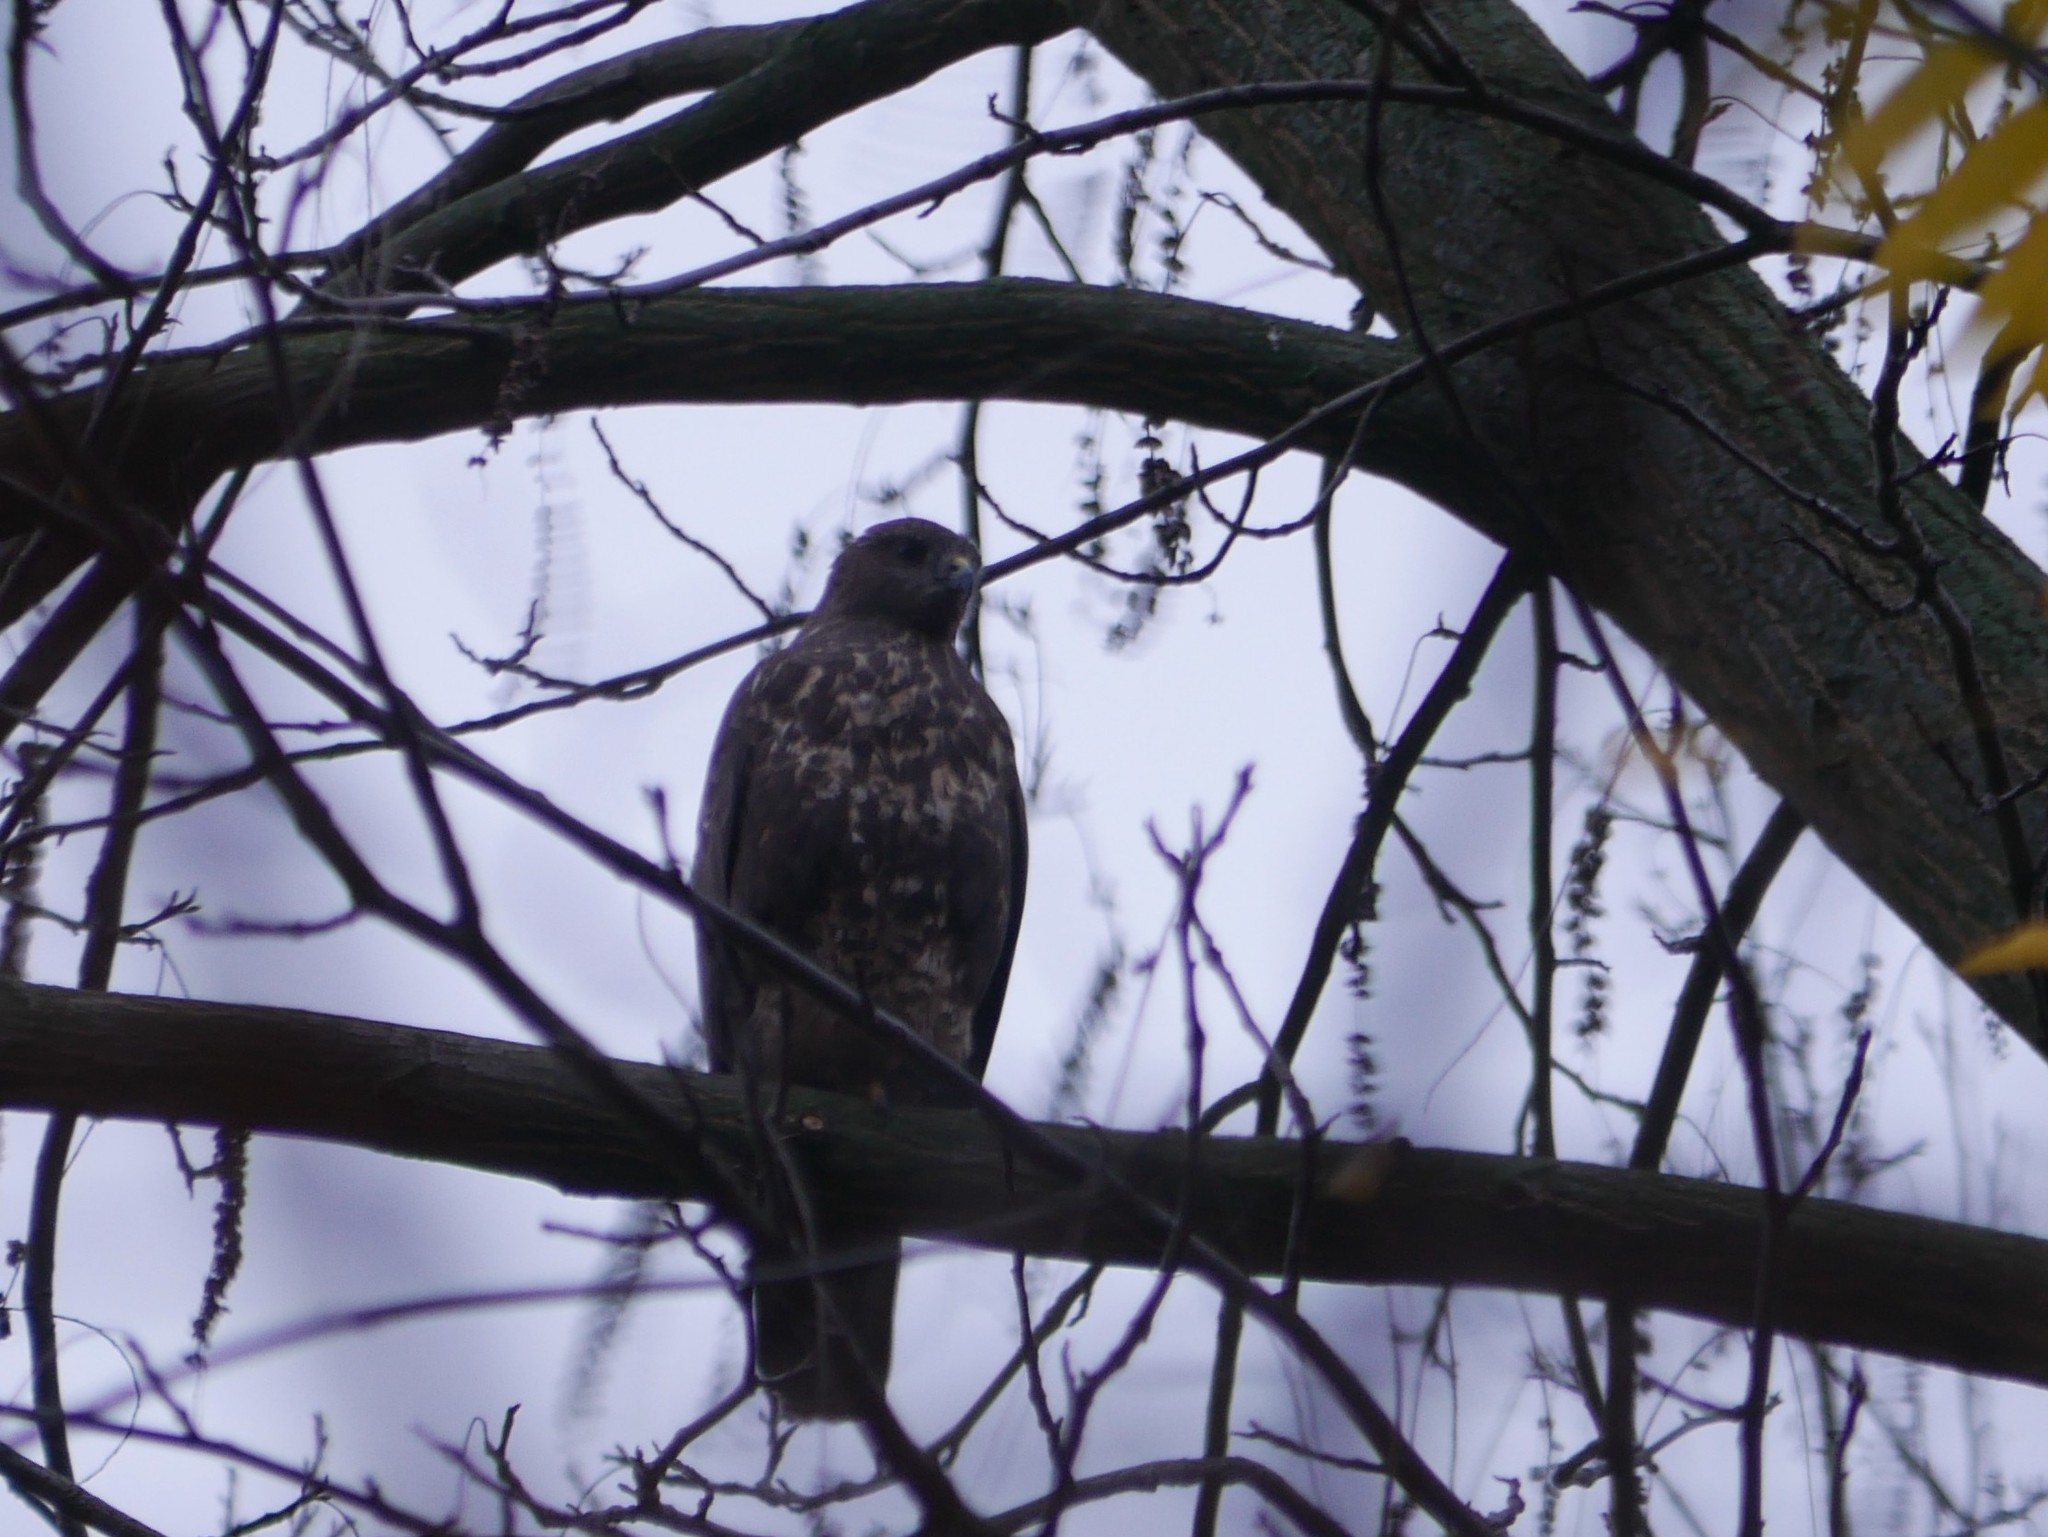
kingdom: Animalia
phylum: Chordata
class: Aves
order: Accipitriformes
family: Accipitridae
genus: Buteo
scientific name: Buteo buteo
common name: Common buzzard
